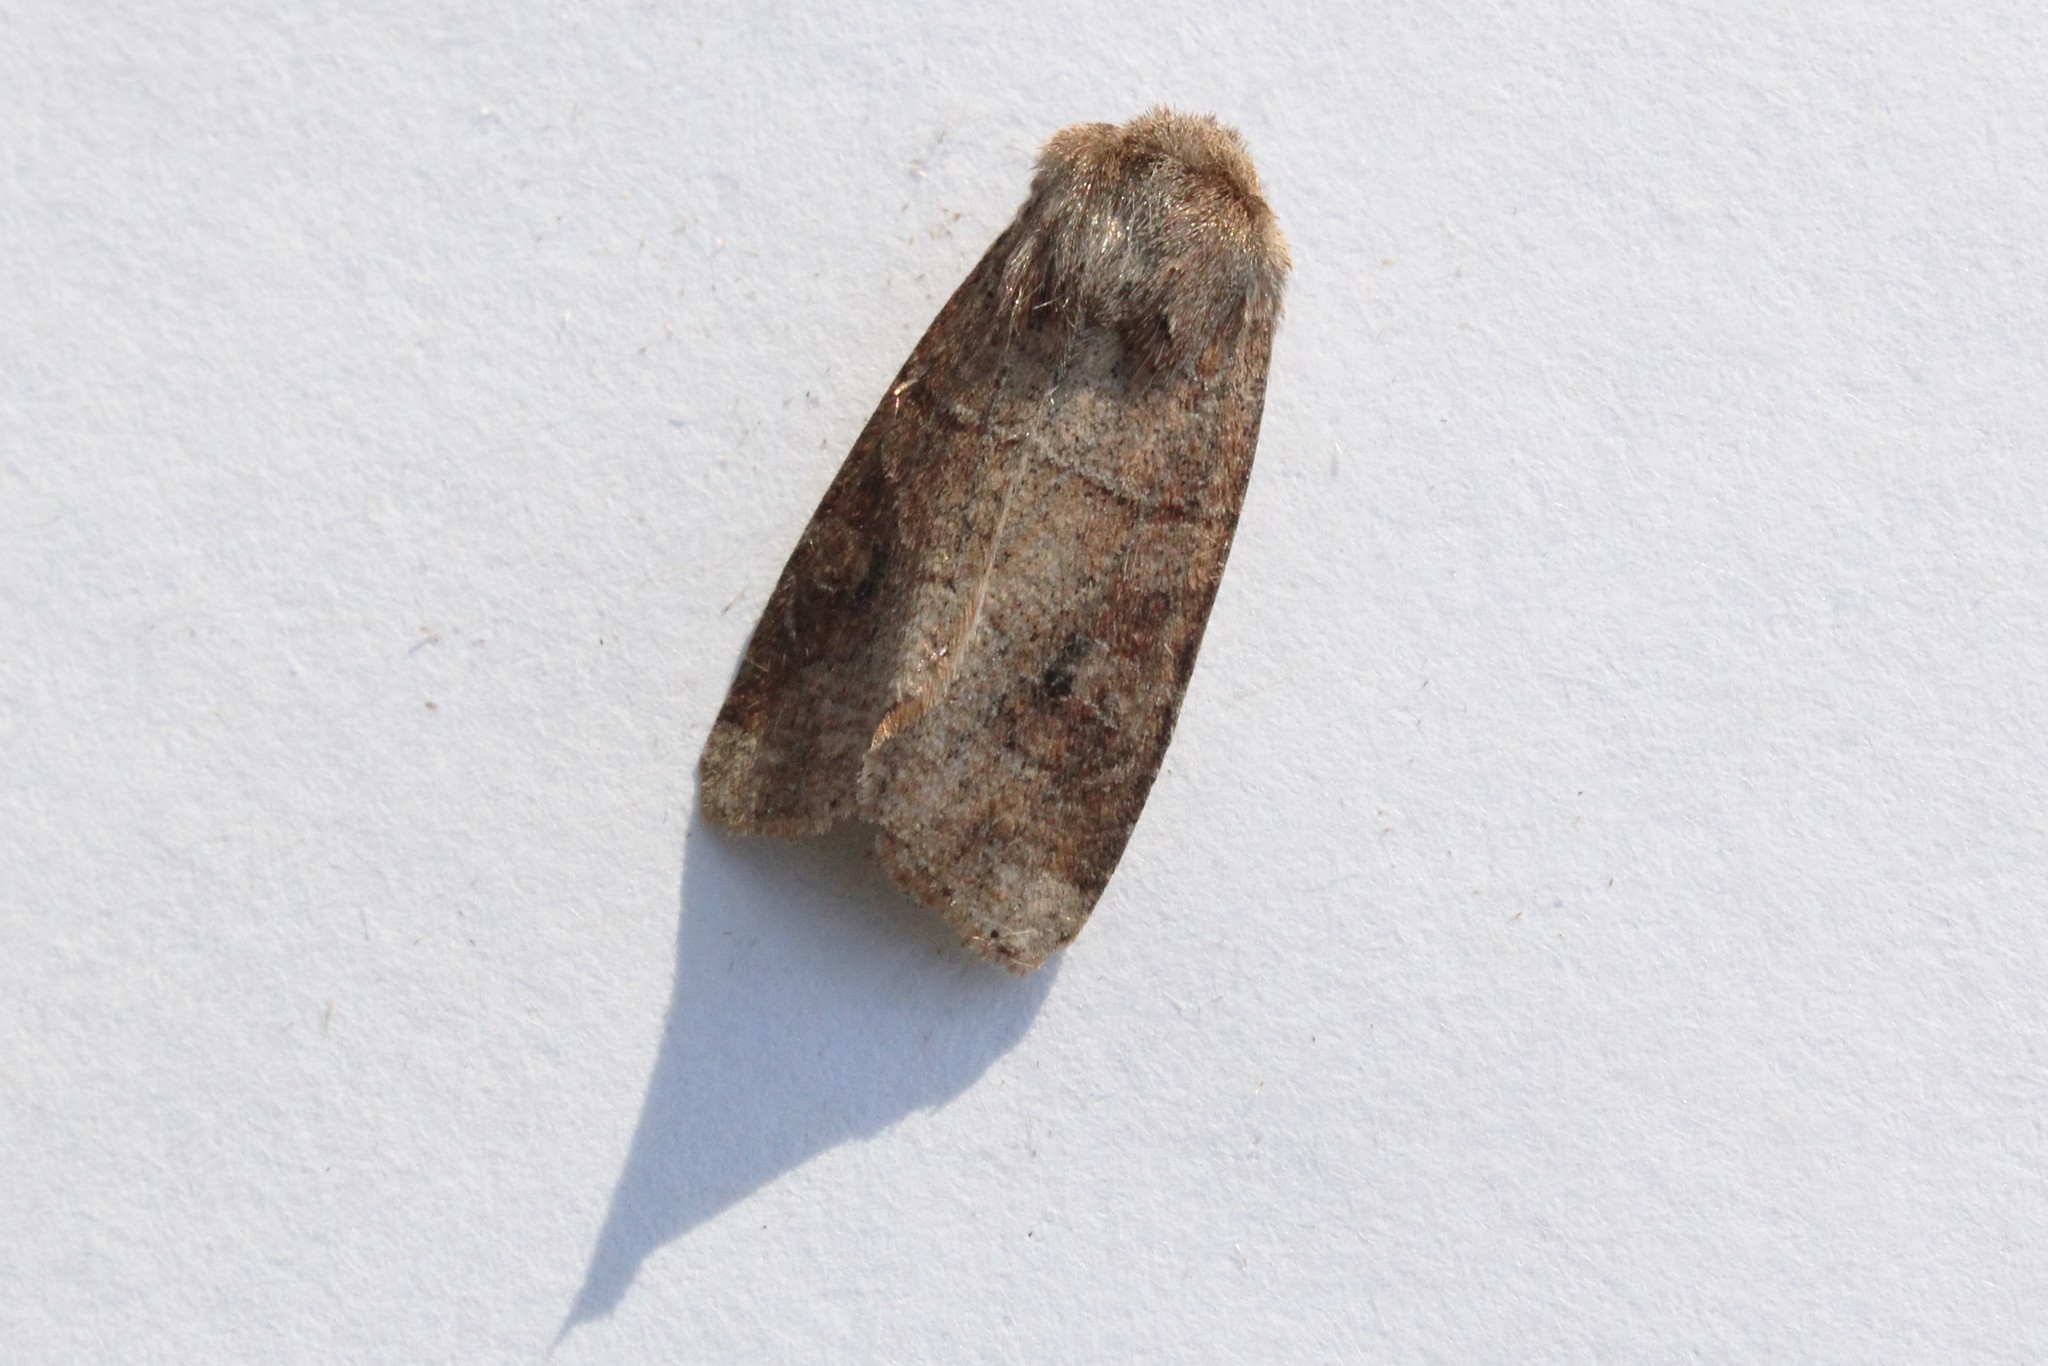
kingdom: Animalia
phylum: Arthropoda
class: Insecta
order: Lepidoptera
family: Noctuidae
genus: Crocigrapha
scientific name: Crocigrapha normani
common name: Norman's quaker
